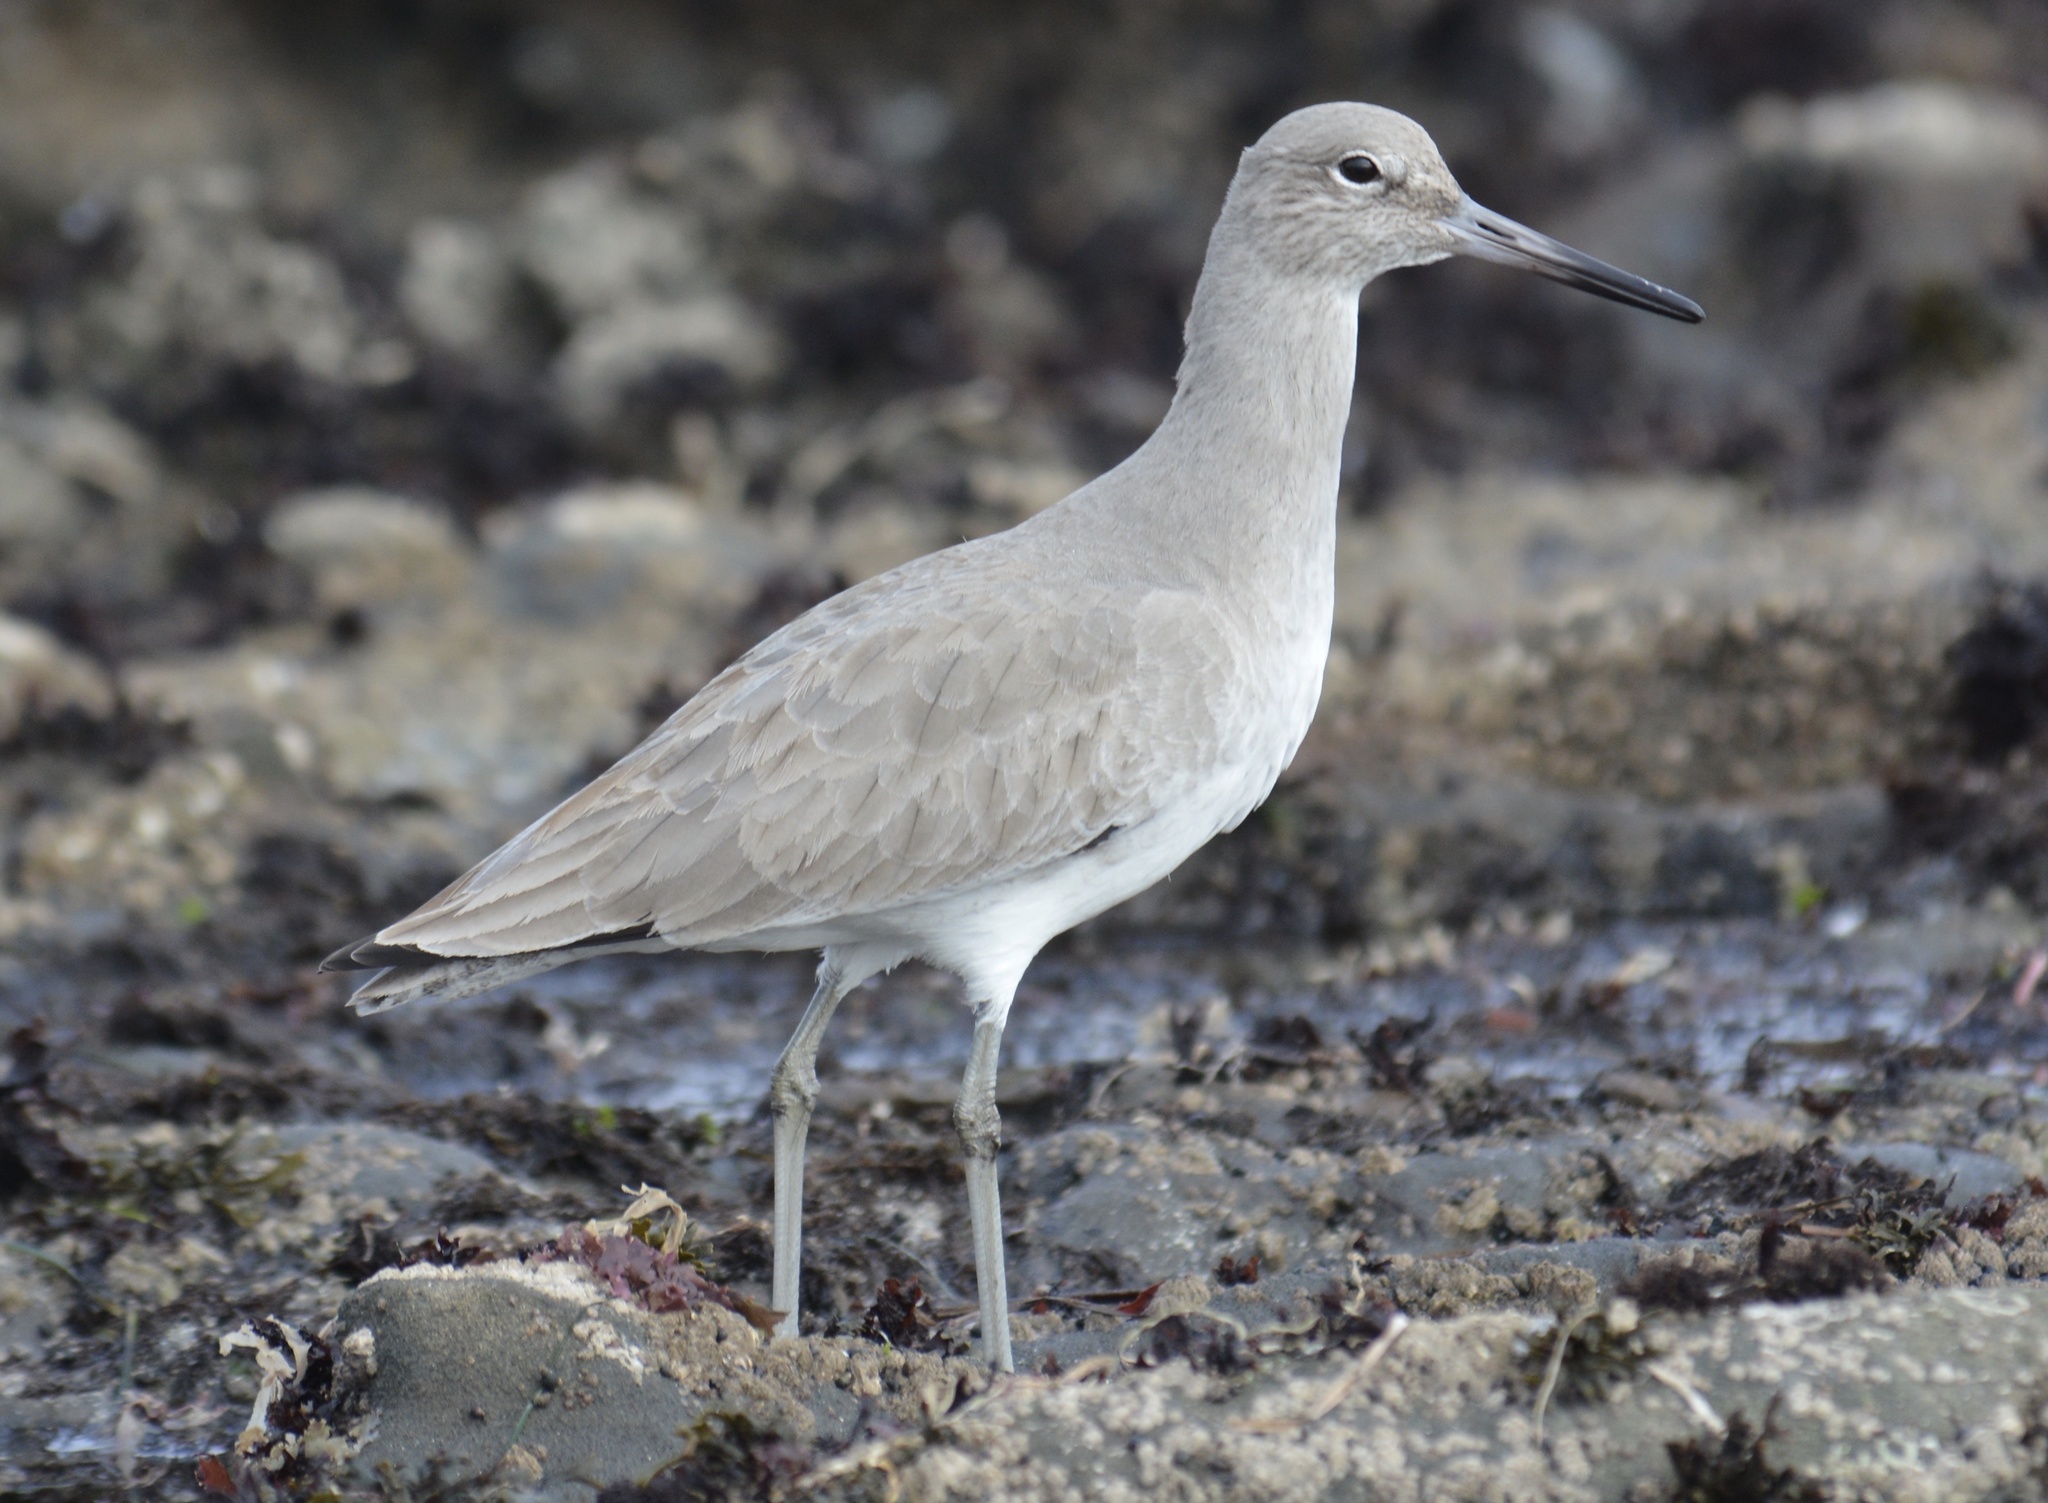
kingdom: Animalia
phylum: Chordata
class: Aves
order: Charadriiformes
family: Scolopacidae
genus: Tringa
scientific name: Tringa semipalmata
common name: Willet
